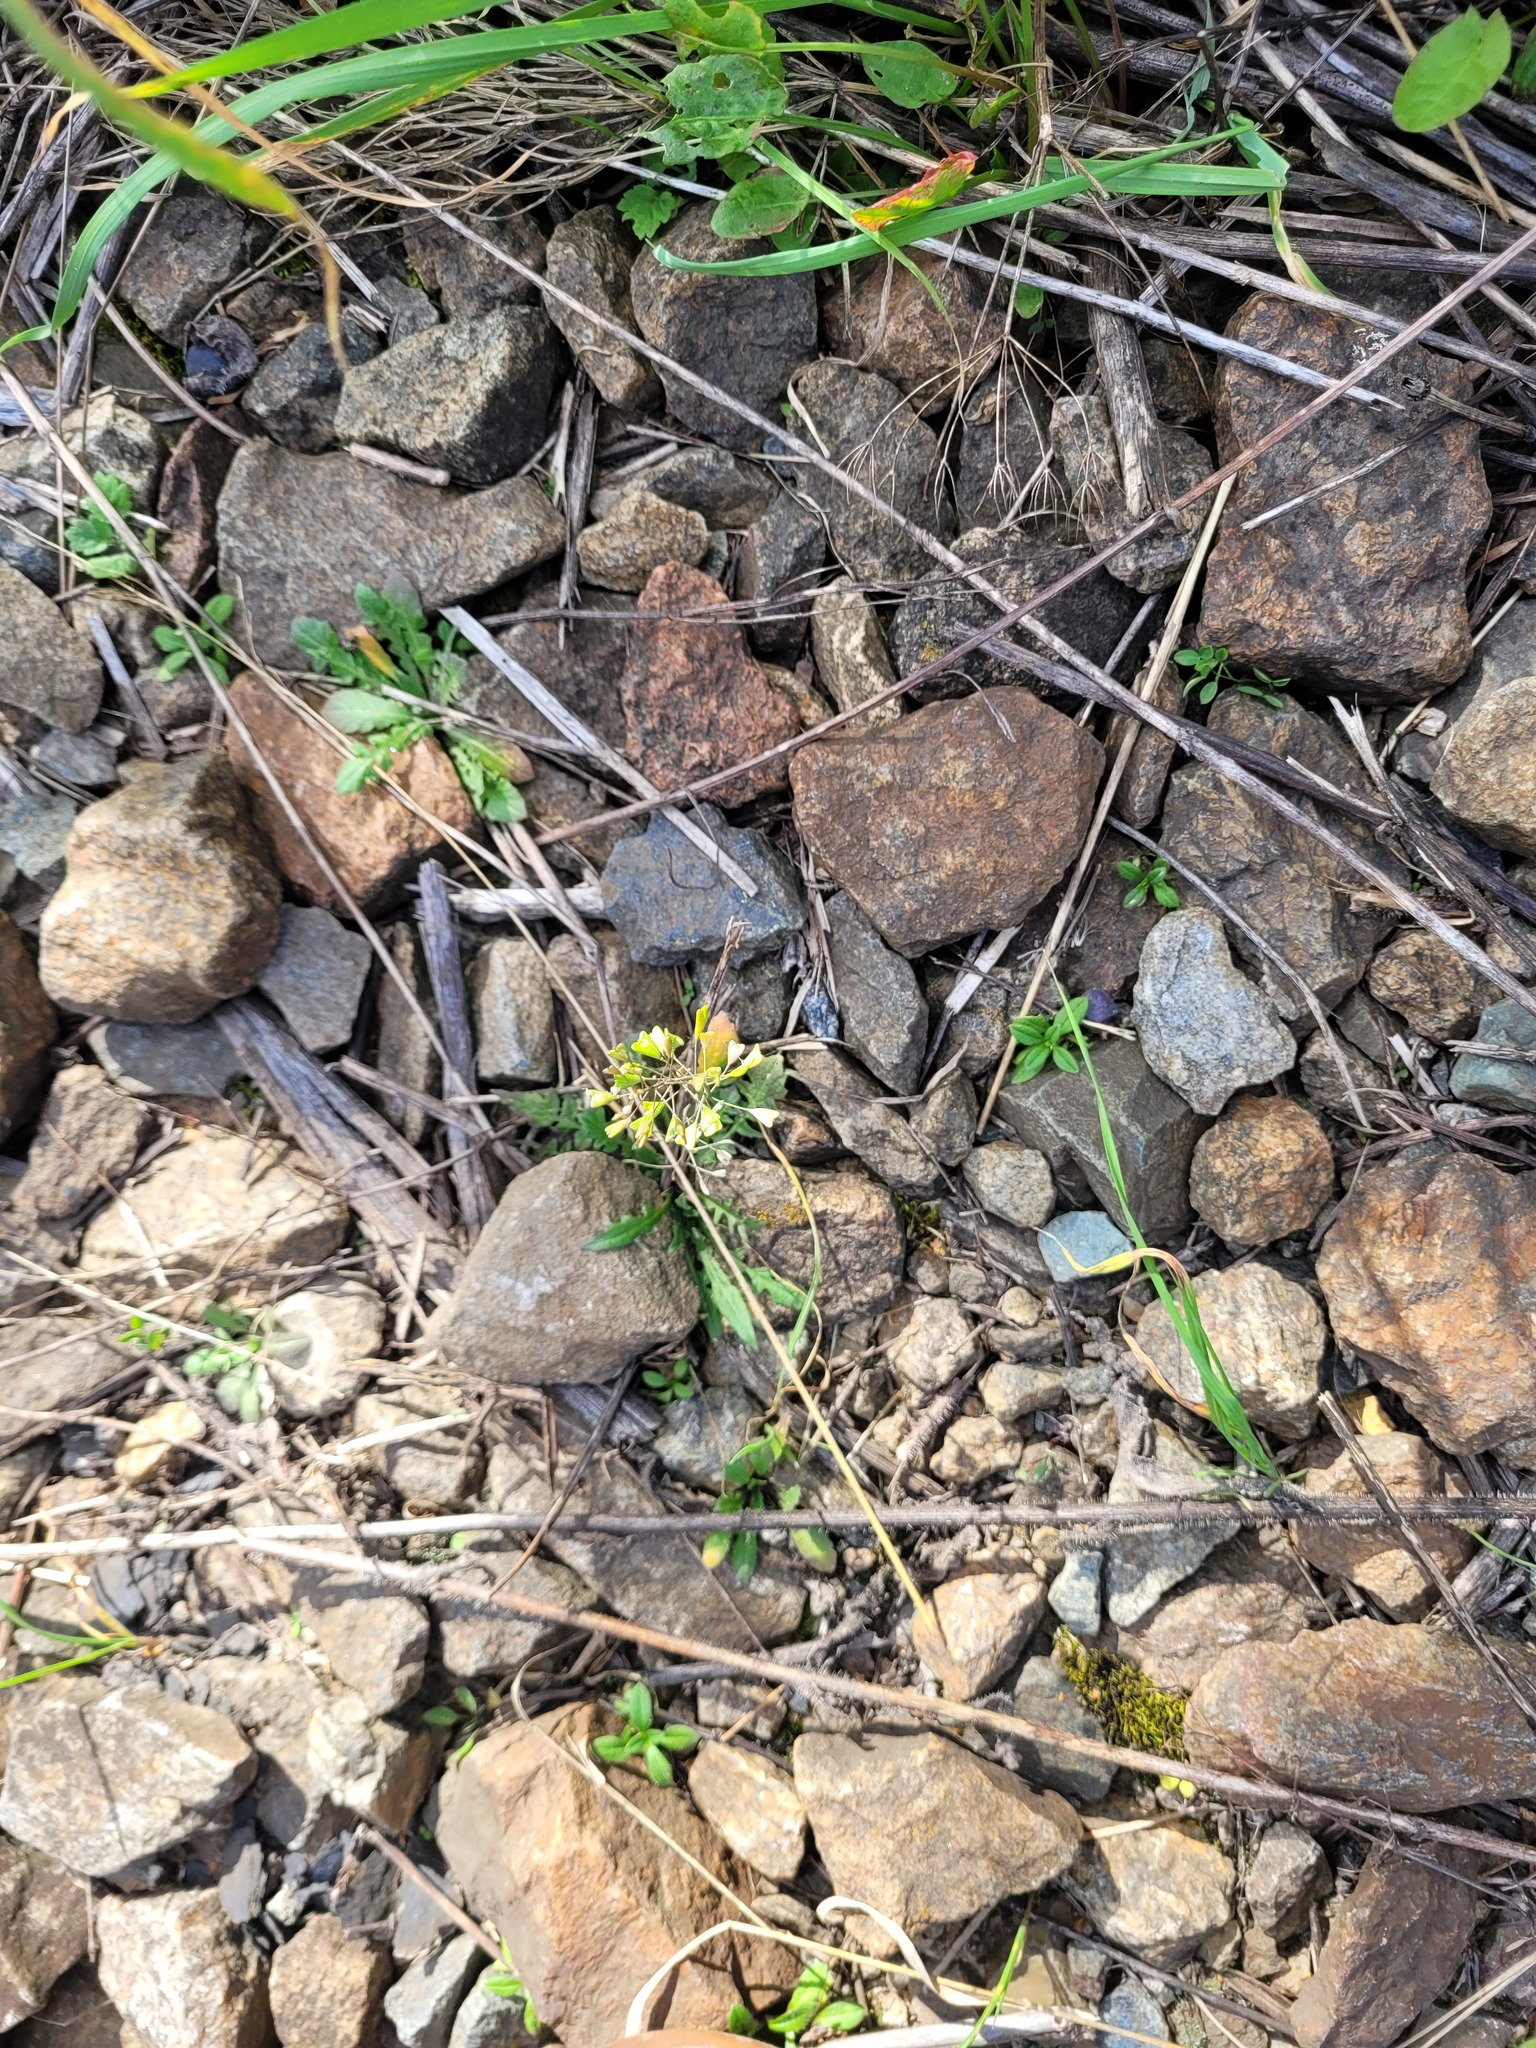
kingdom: Plantae
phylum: Tracheophyta
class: Magnoliopsida
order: Brassicales
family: Brassicaceae
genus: Capsella
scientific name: Capsella bursa-pastoris
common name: Shepherd's purse
